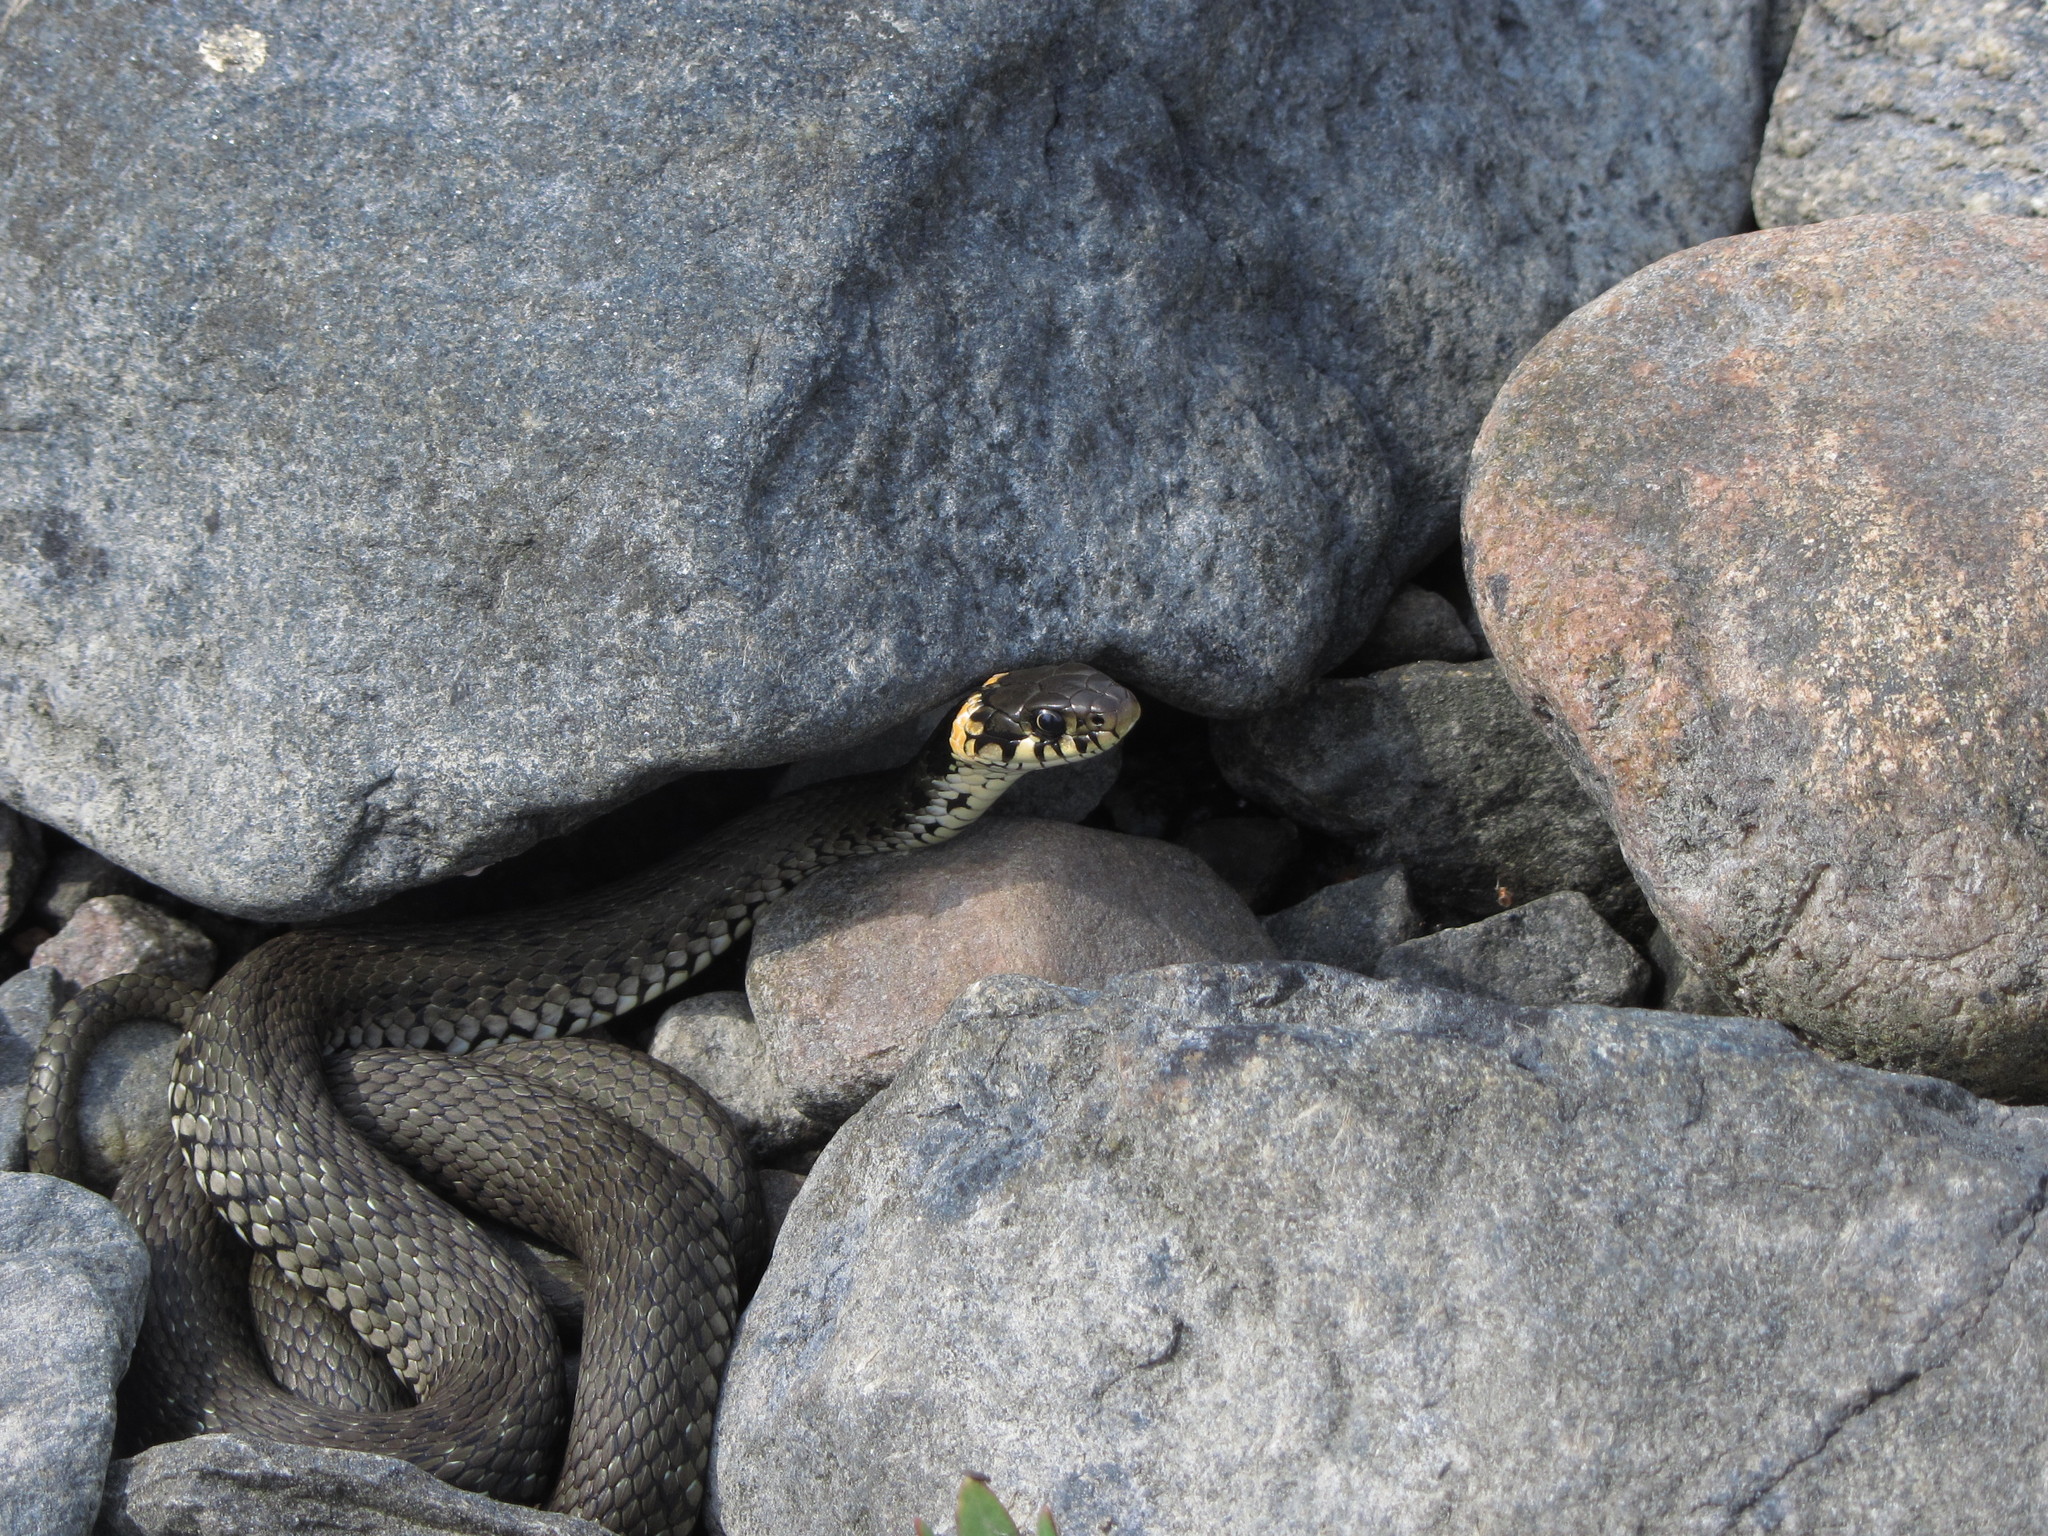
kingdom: Animalia
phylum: Chordata
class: Squamata
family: Colubridae
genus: Natrix
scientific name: Natrix natrix
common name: Grass snake
